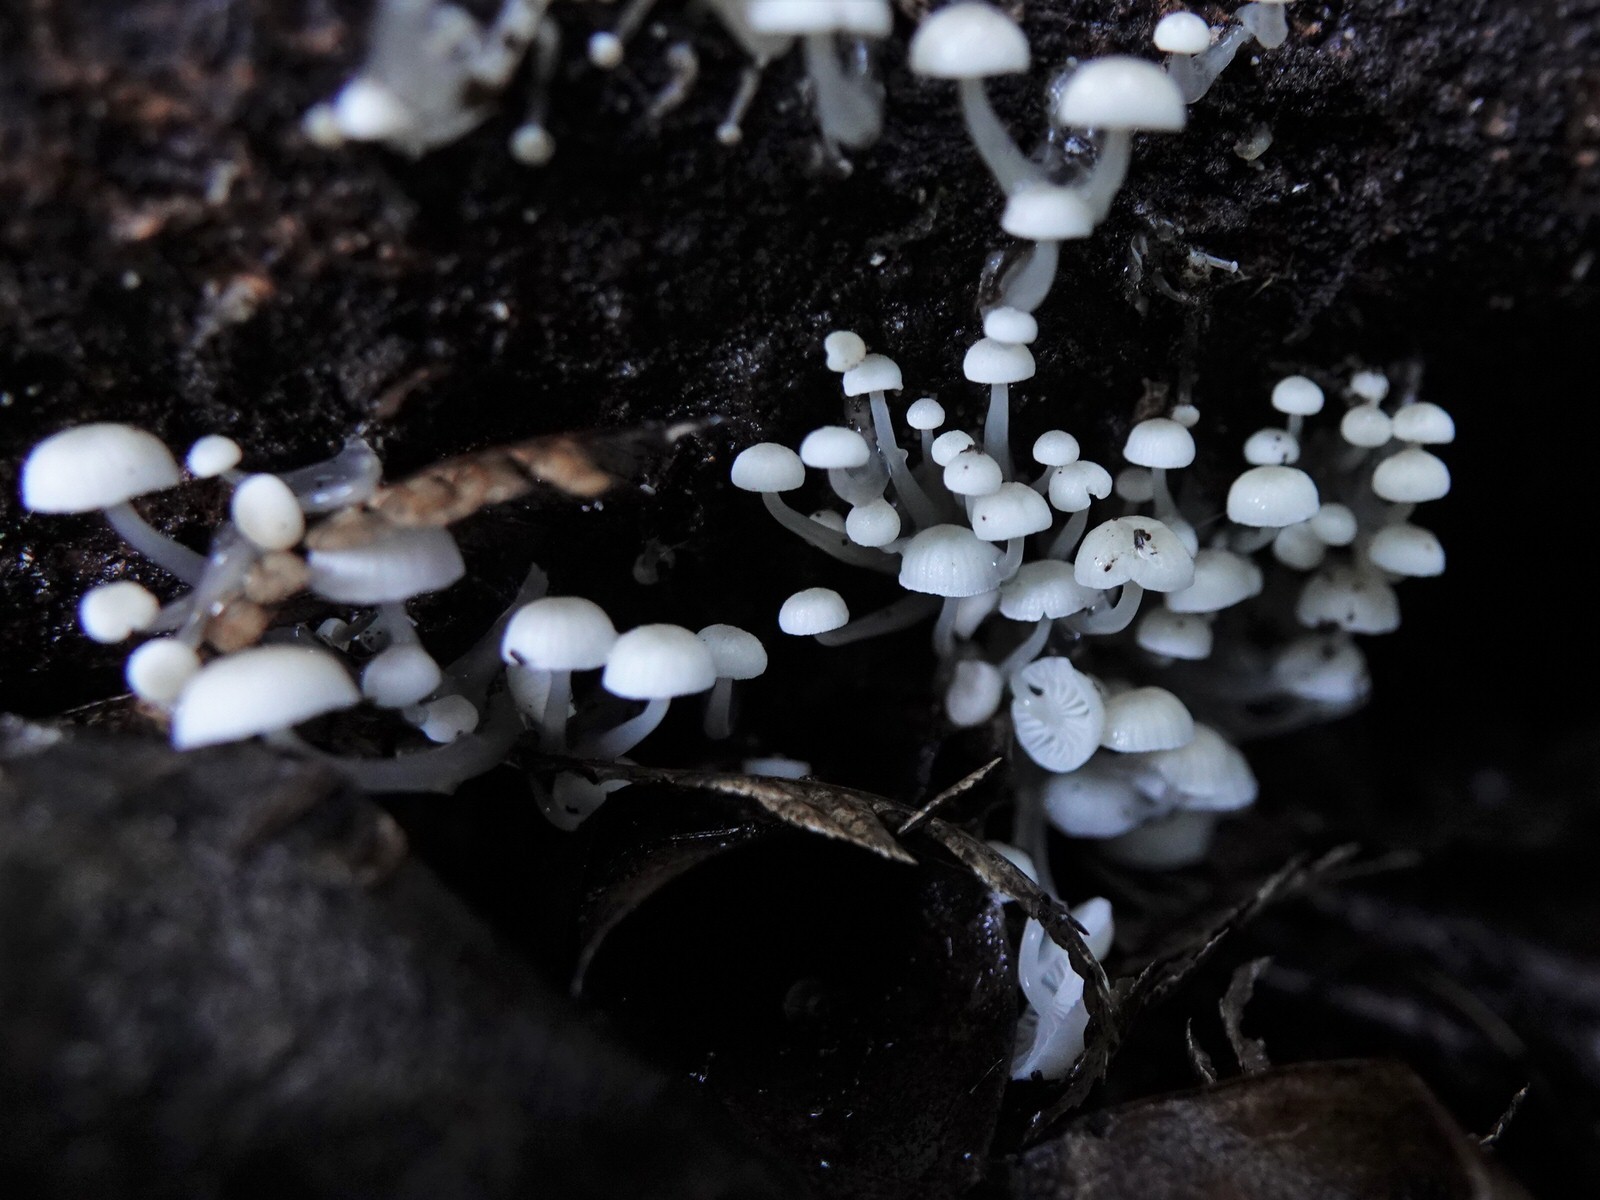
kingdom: Fungi
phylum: Basidiomycota
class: Agaricomycetes
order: Agaricales
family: Mycenaceae
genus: Roridomyces
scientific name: Roridomyces austrororidus
